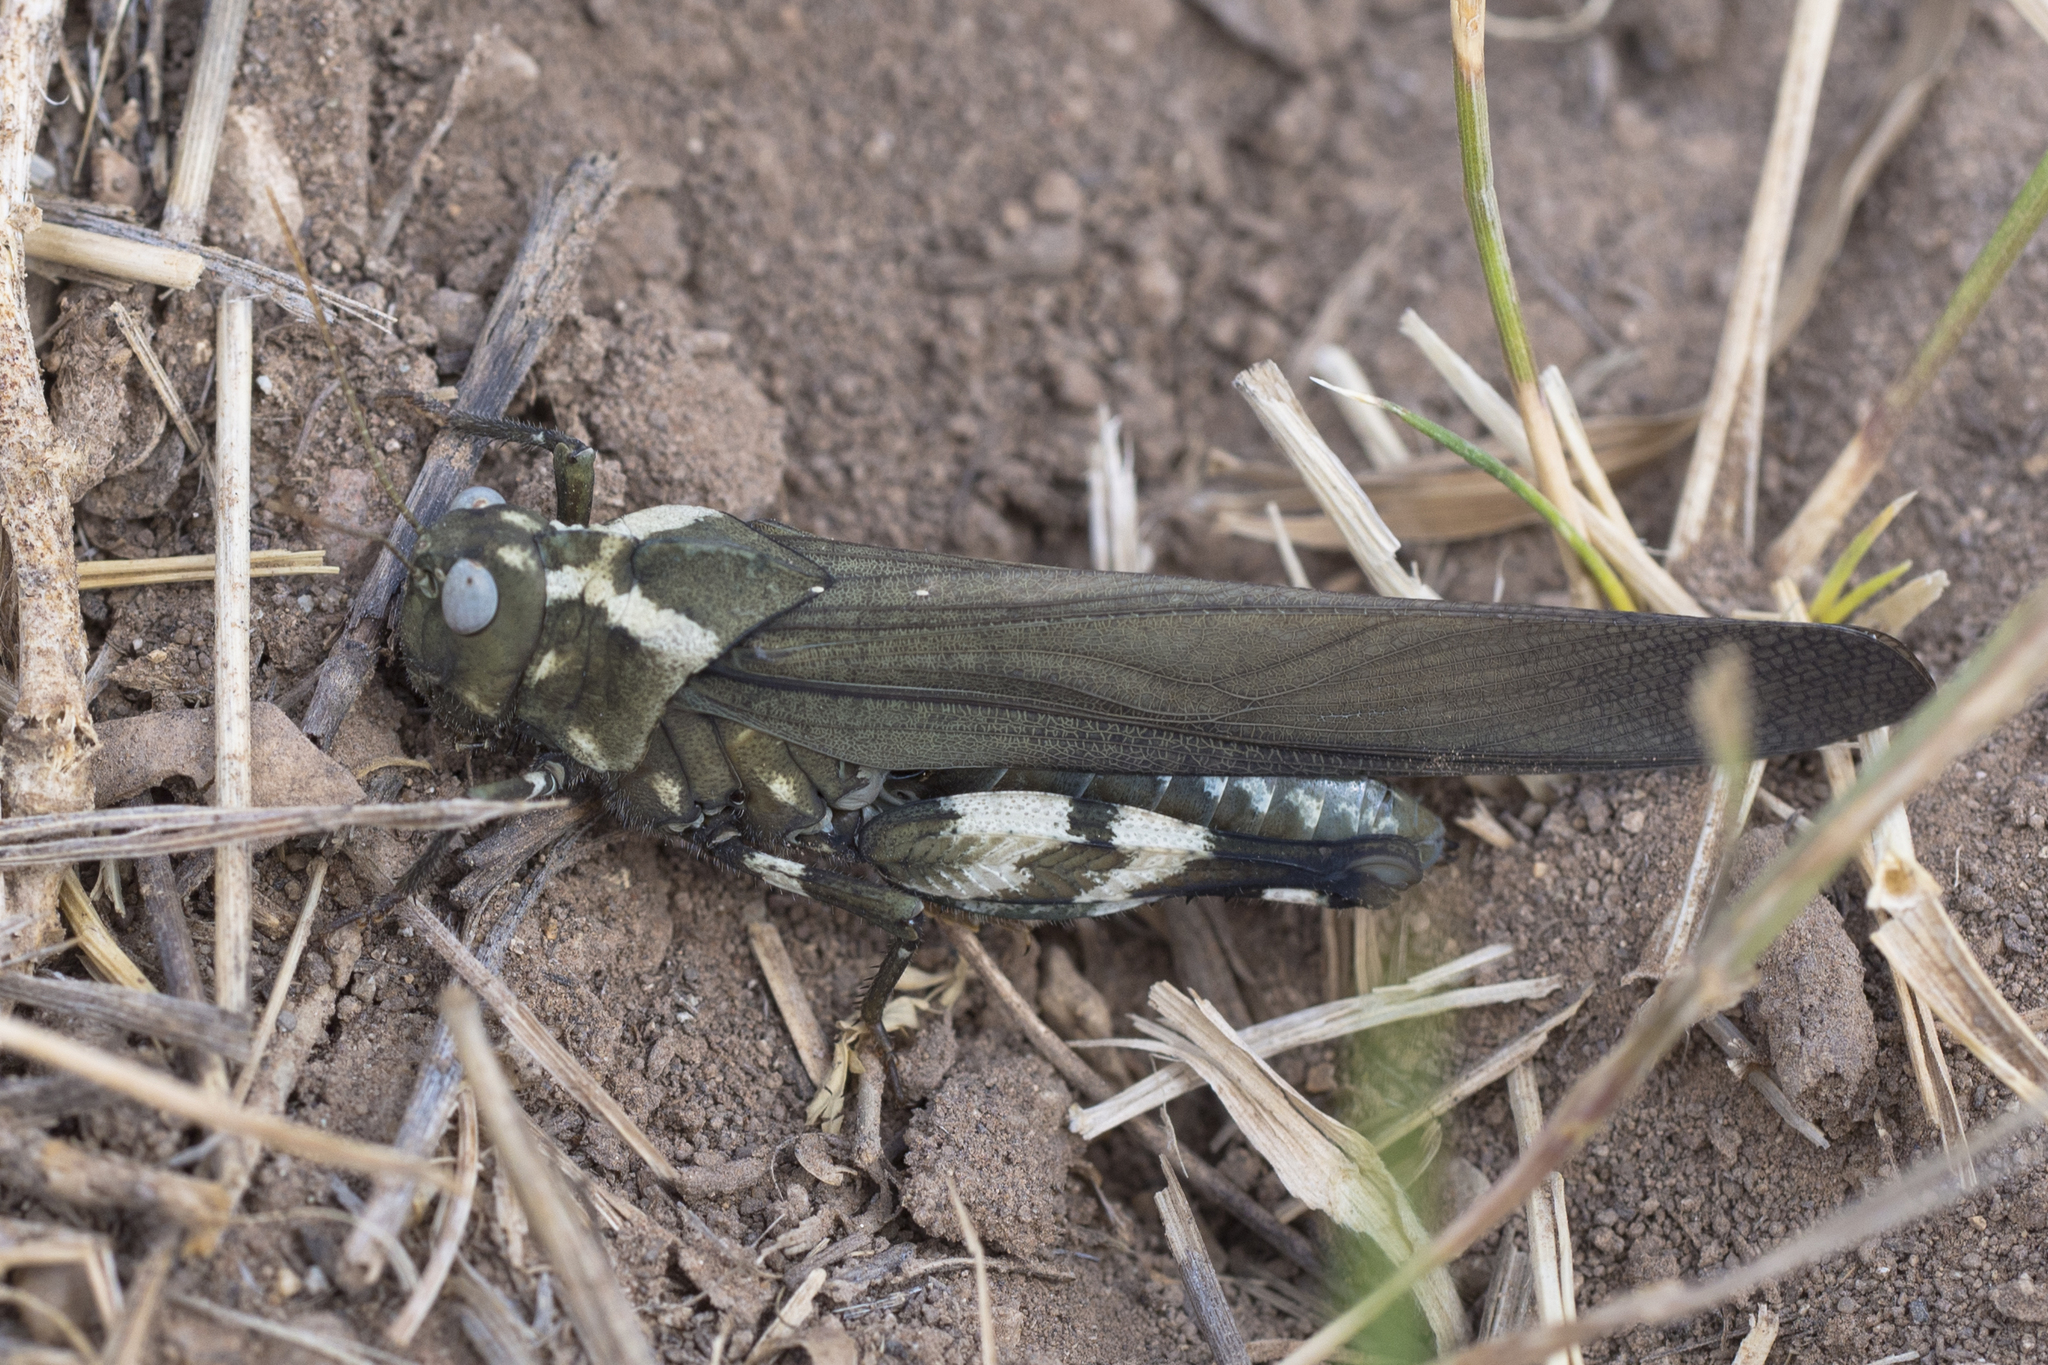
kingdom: Animalia
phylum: Arthropoda
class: Insecta
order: Orthoptera
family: Acrididae
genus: Dissosteira
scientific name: Dissosteira carolina
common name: Carolina grasshopper
